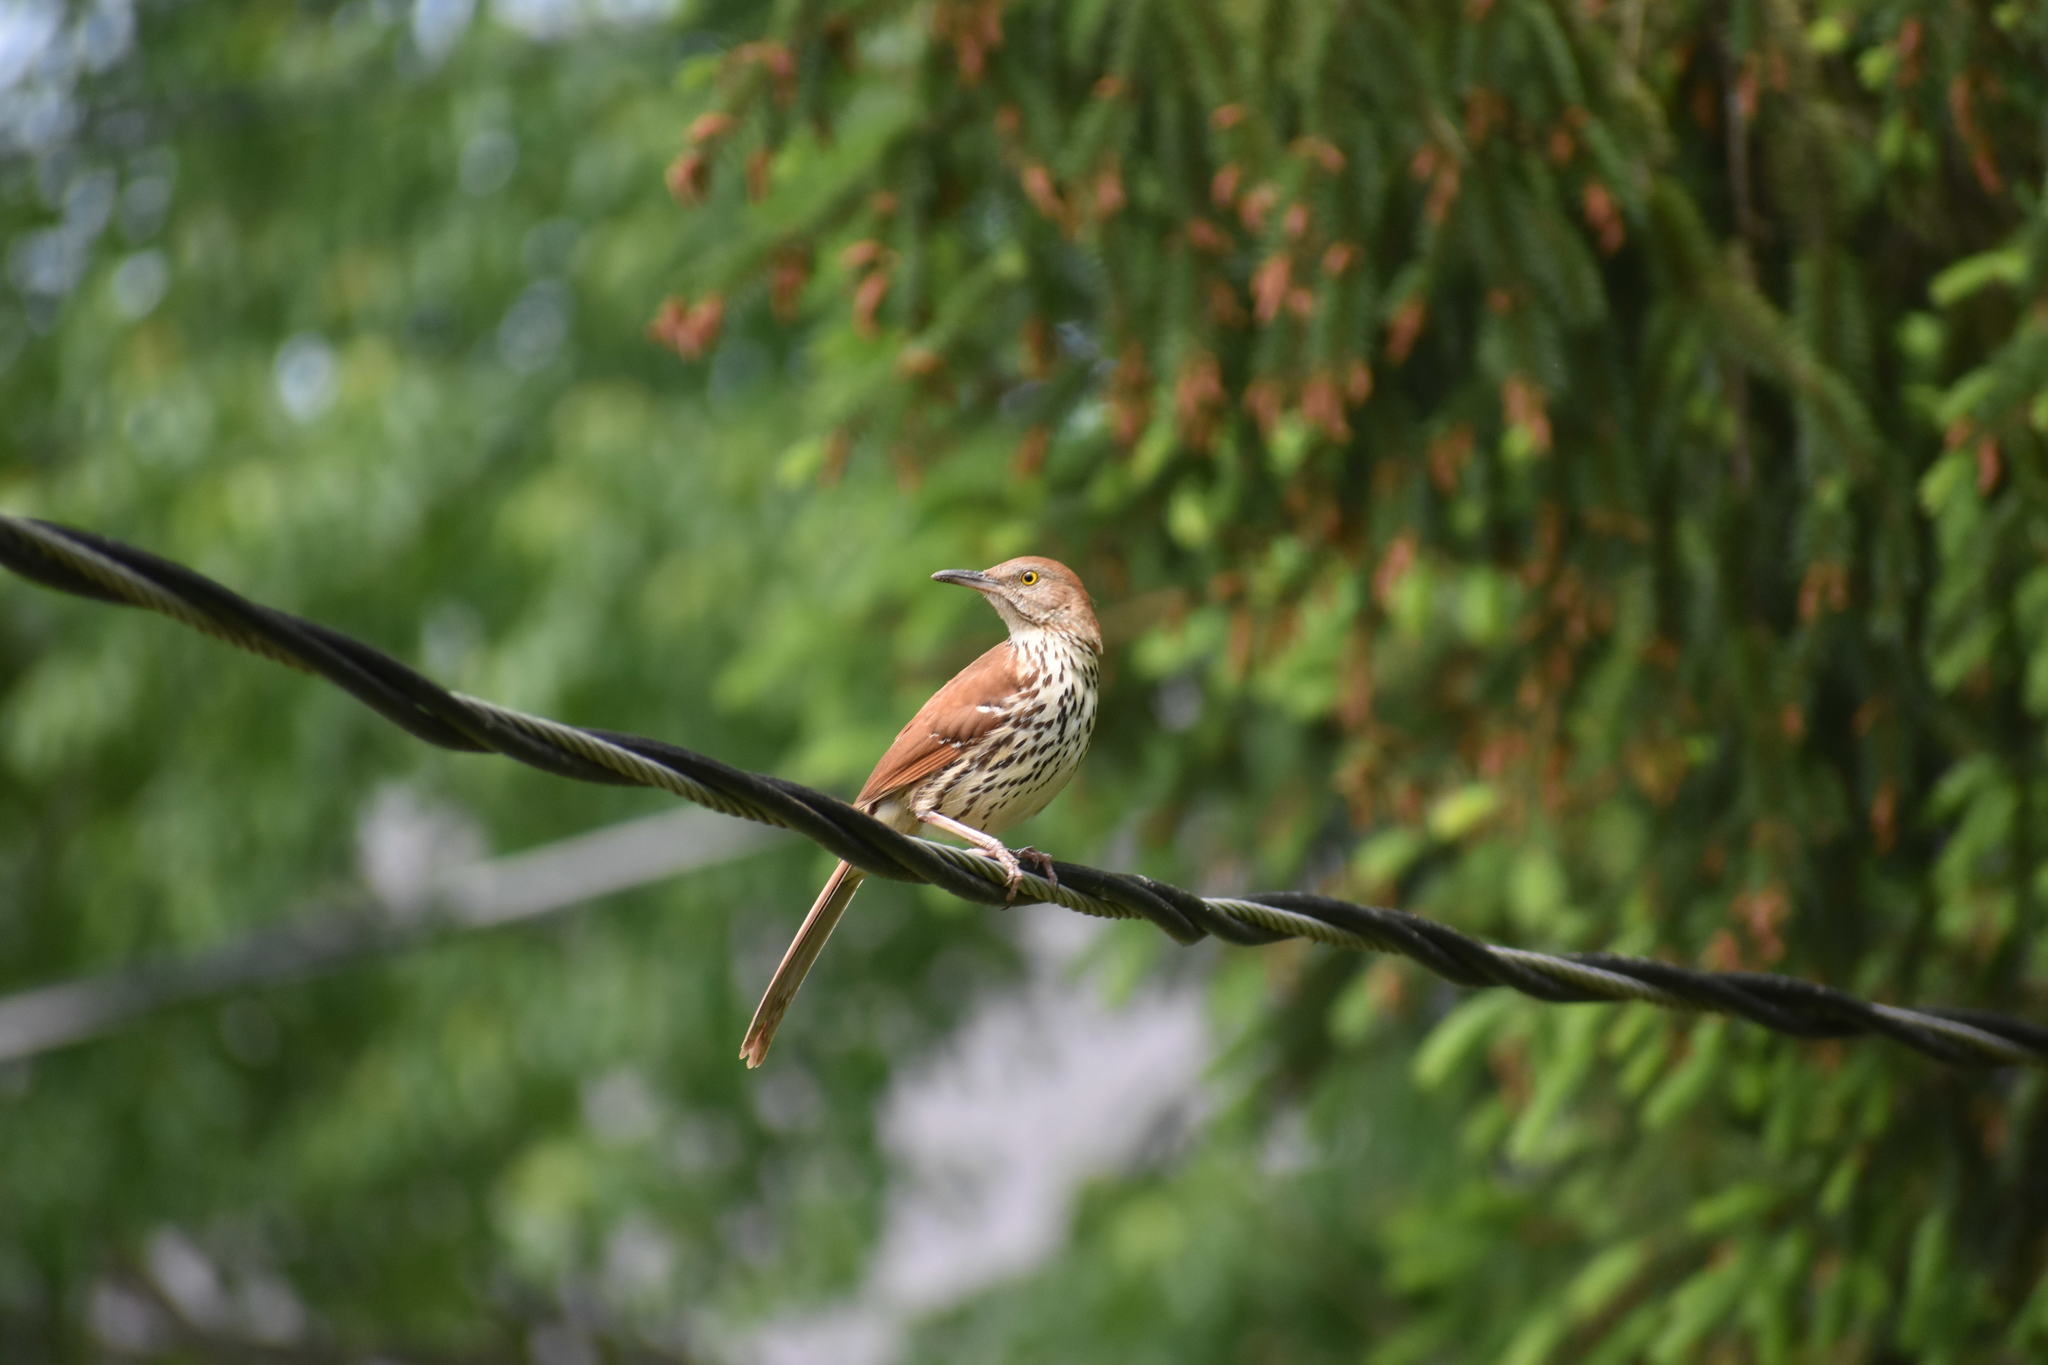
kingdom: Animalia
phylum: Chordata
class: Aves
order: Passeriformes
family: Mimidae
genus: Toxostoma
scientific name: Toxostoma rufum
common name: Brown thrasher
